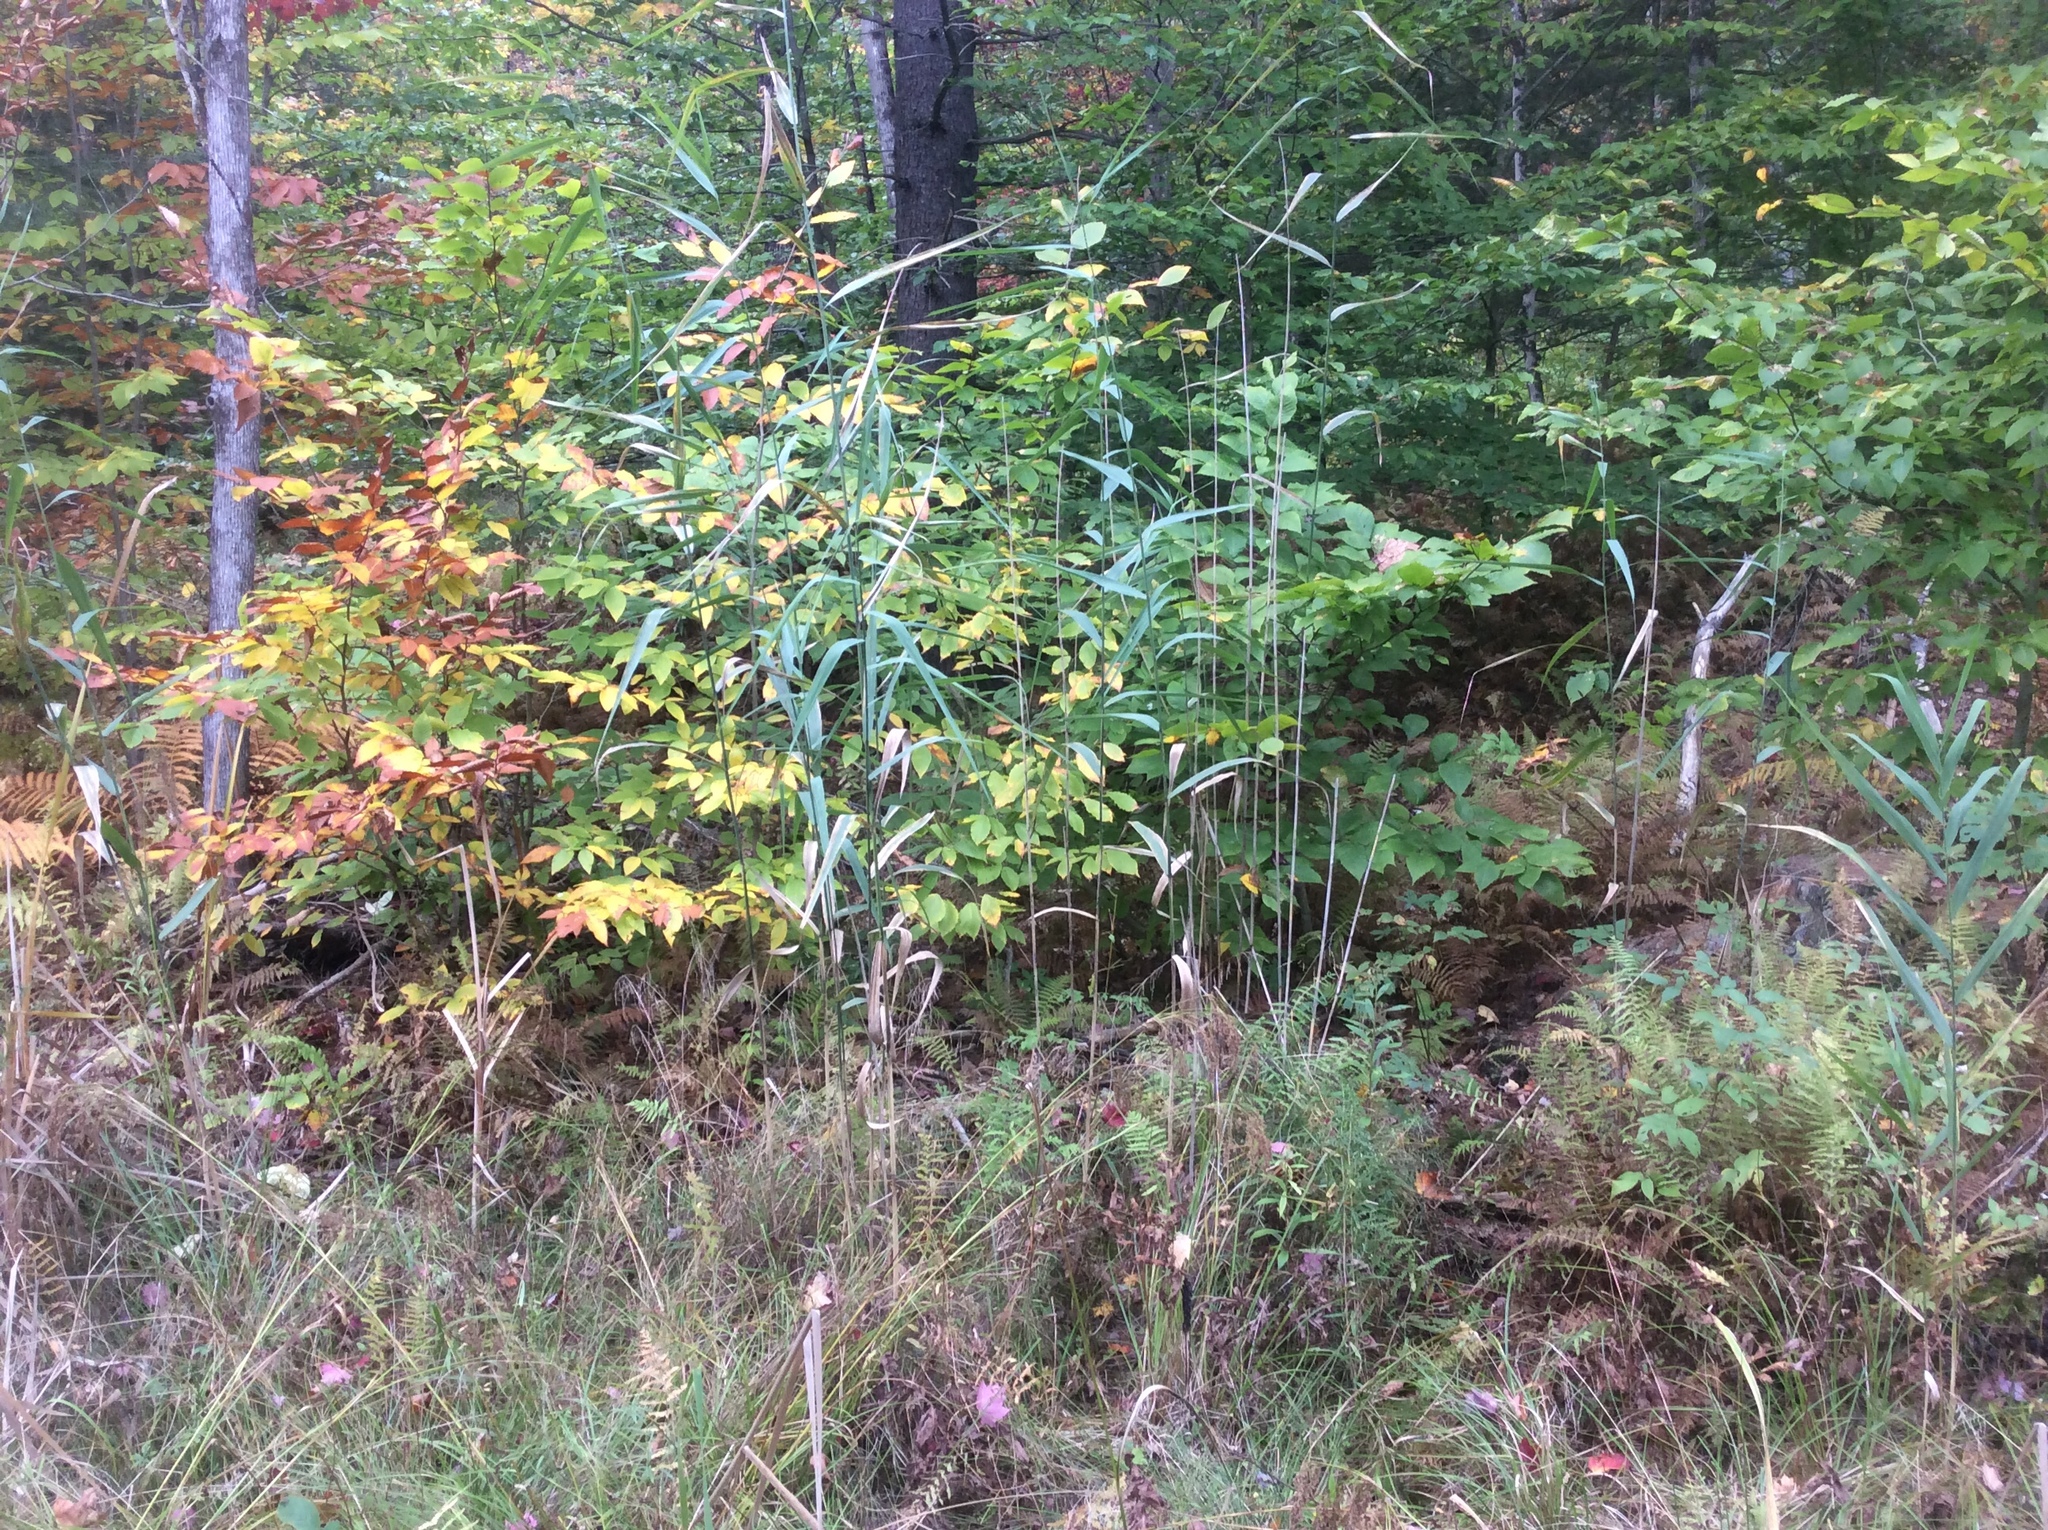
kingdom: Plantae
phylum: Tracheophyta
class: Liliopsida
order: Poales
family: Poaceae
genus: Phragmites
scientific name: Phragmites australis
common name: Common reed
